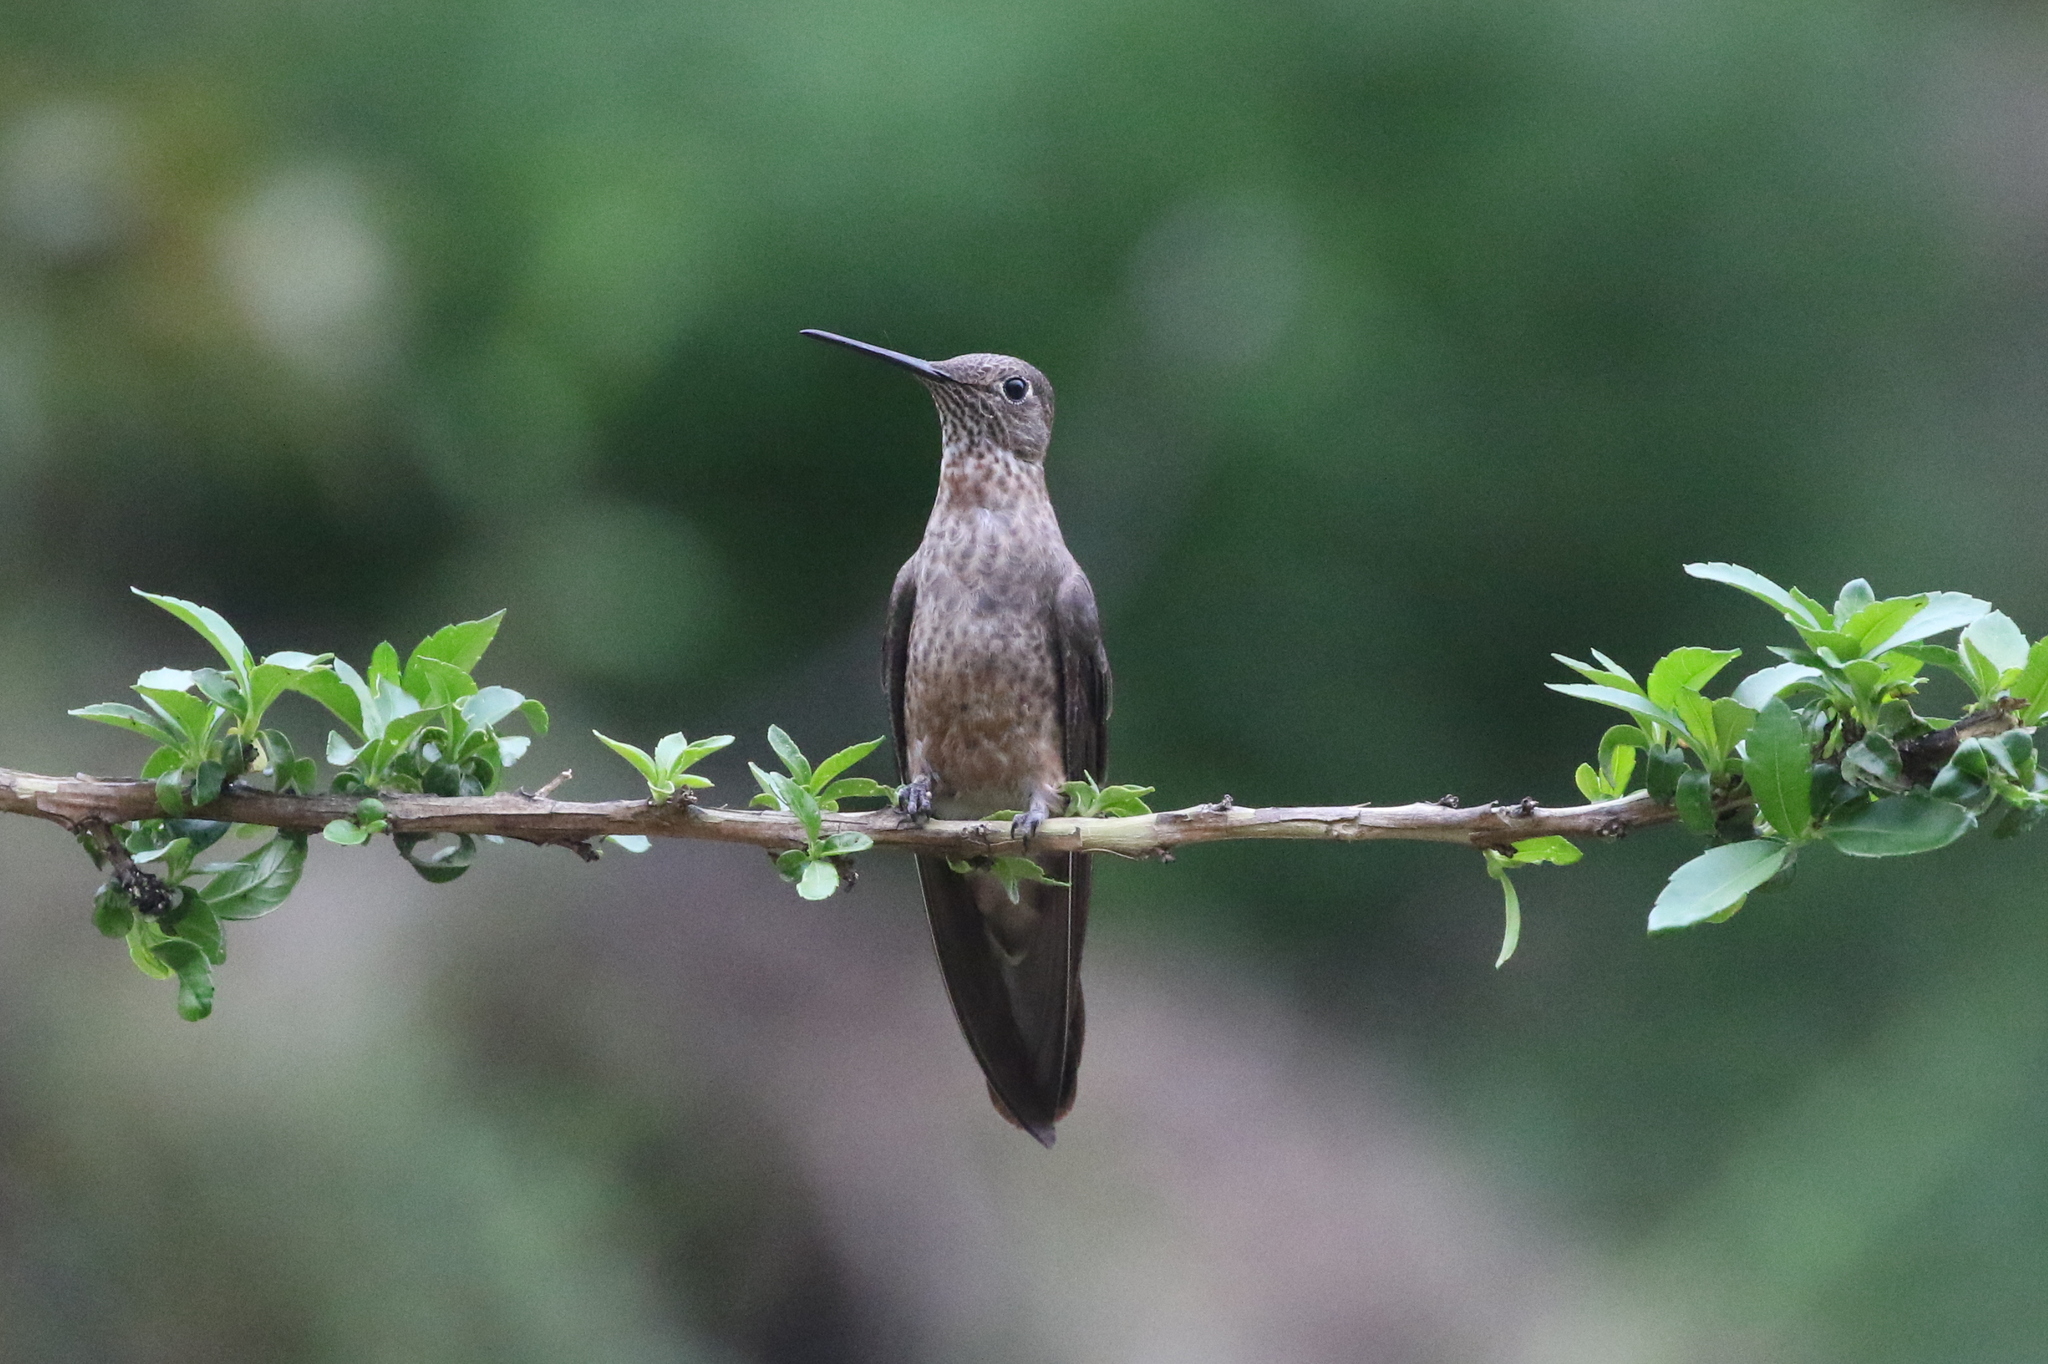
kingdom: Animalia
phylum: Chordata
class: Aves
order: Apodiformes
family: Trochilidae
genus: Patagona
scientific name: Patagona gigas
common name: Giant hummingbird
